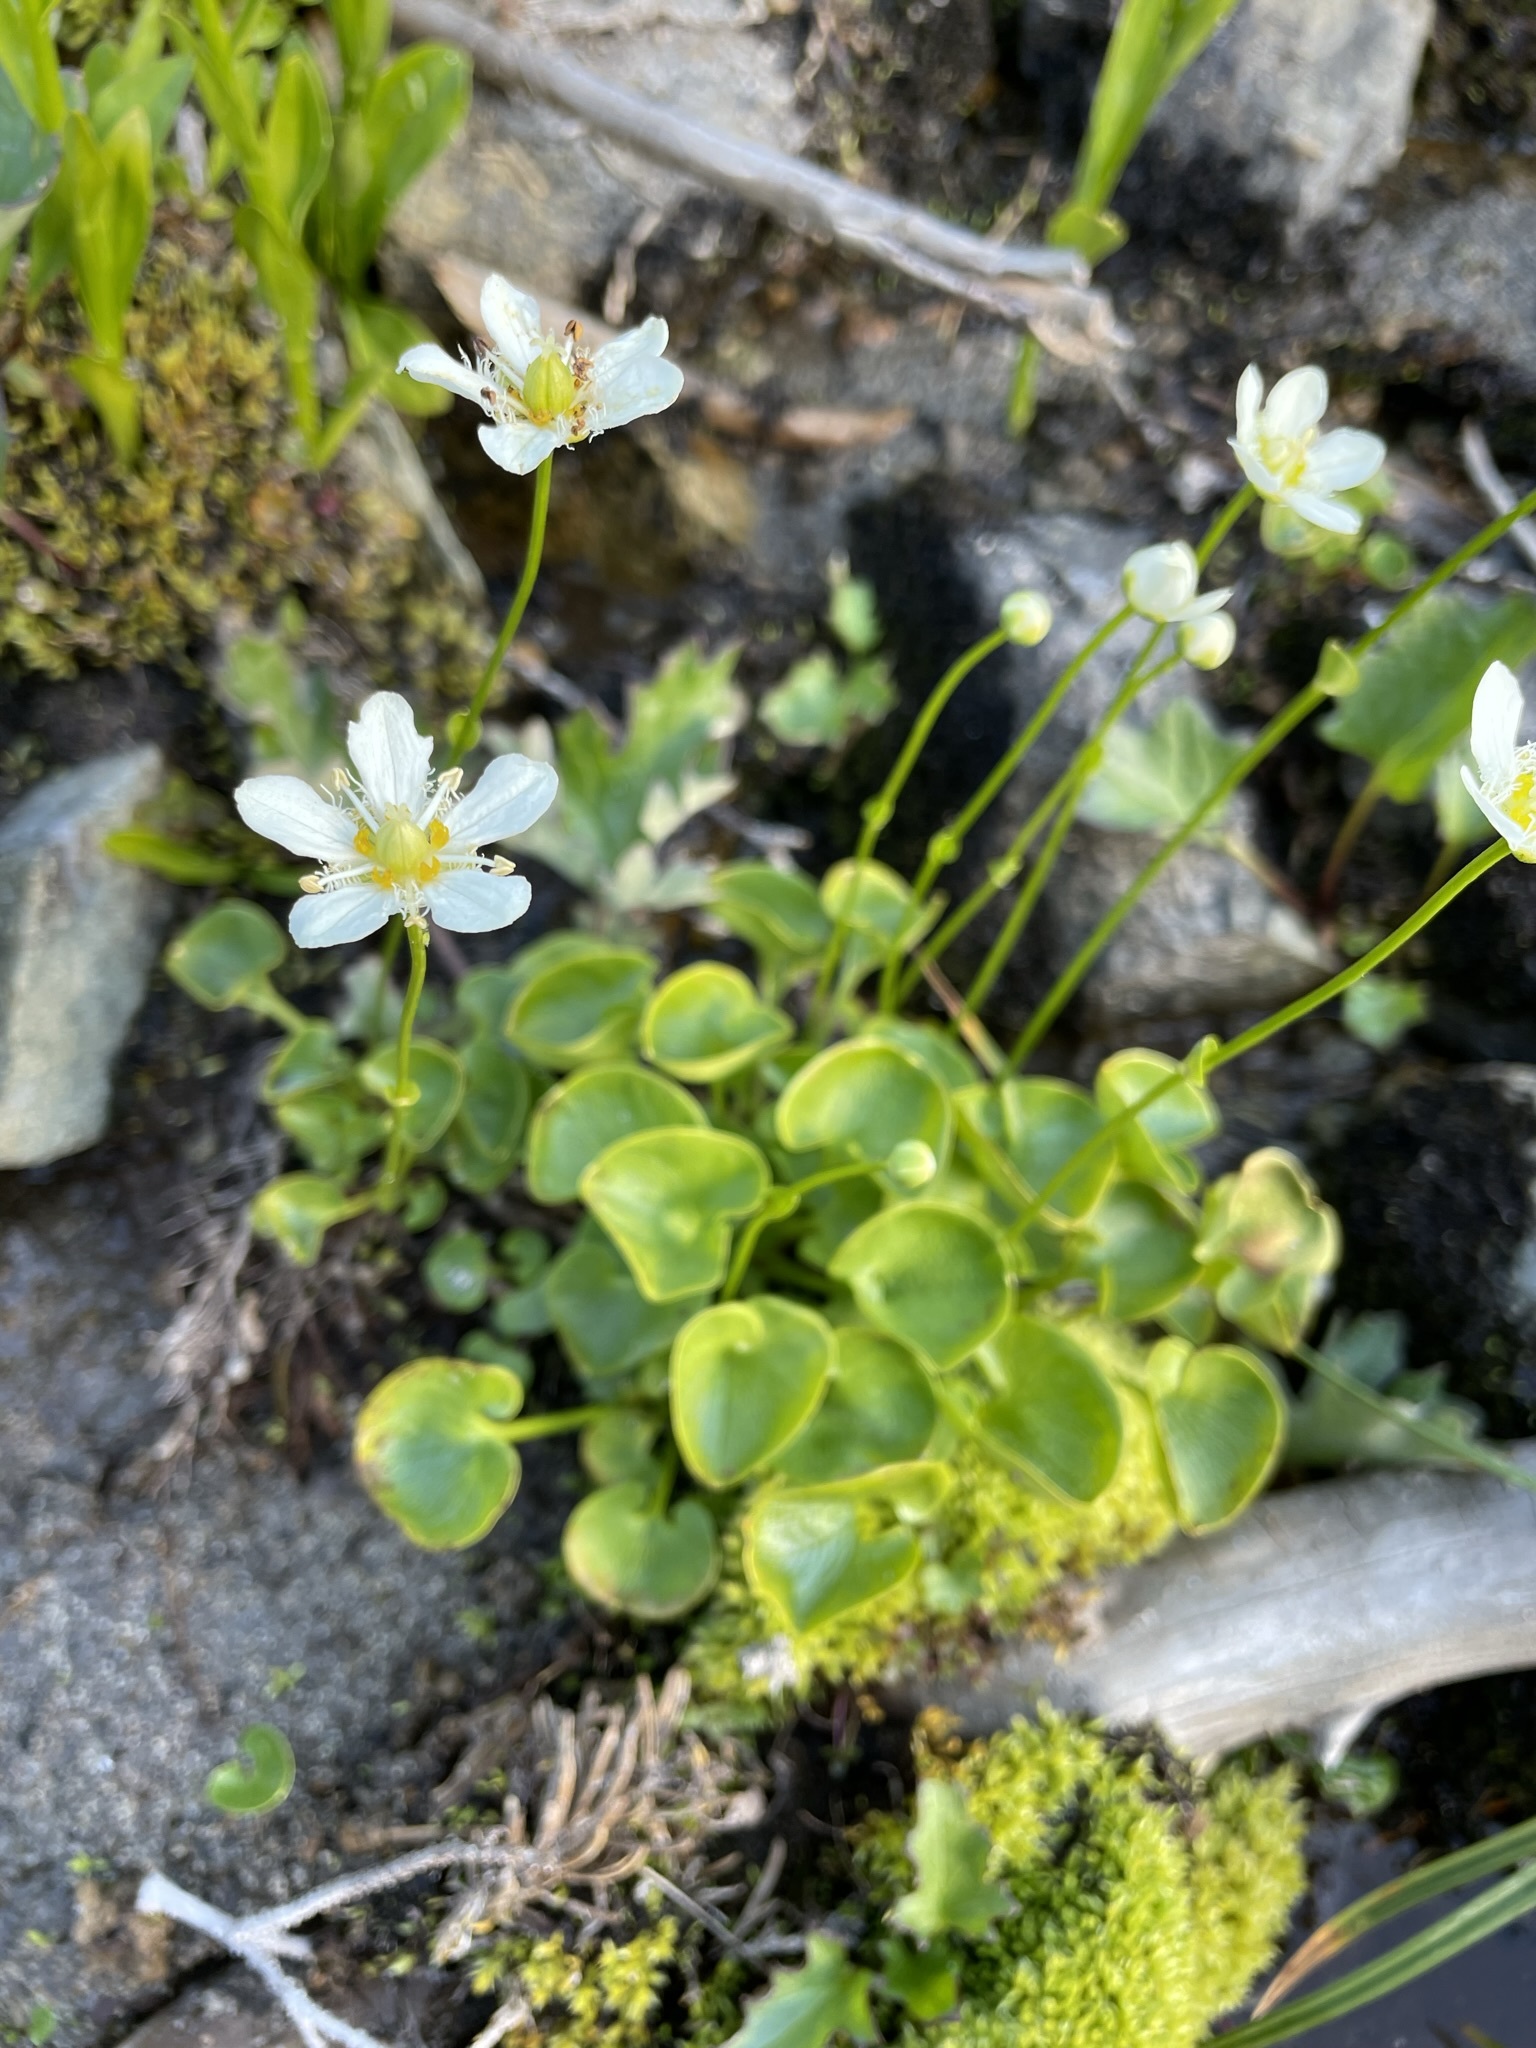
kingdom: Plantae
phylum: Tracheophyta
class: Magnoliopsida
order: Celastrales
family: Parnassiaceae
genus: Parnassia
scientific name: Parnassia fimbriata
